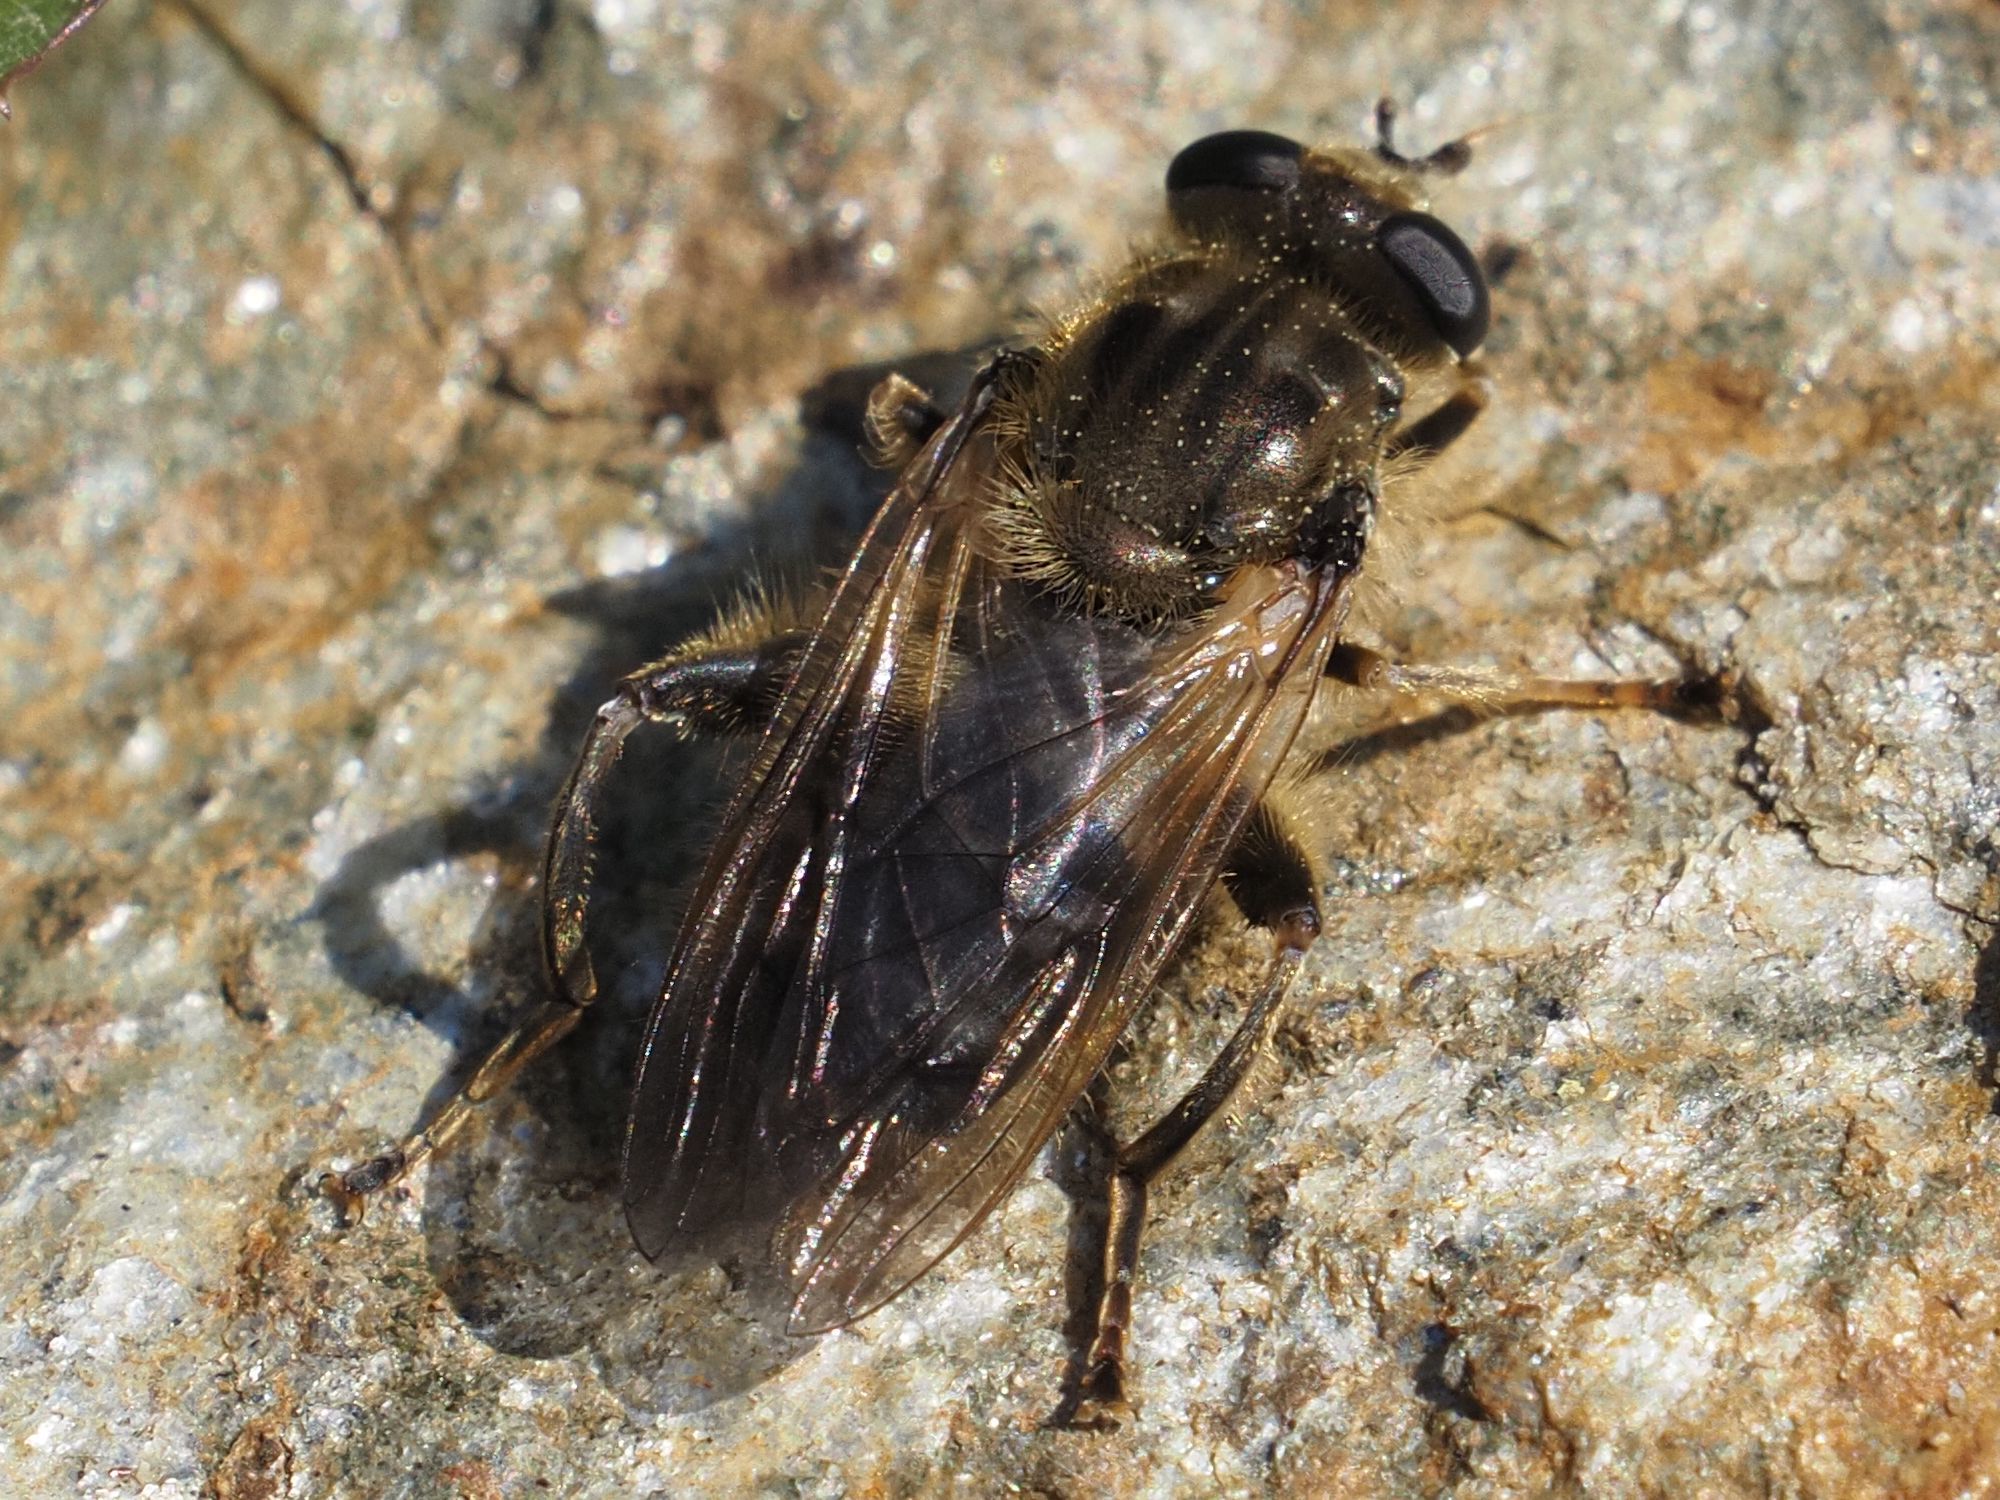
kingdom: Animalia
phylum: Arthropoda
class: Insecta
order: Diptera
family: Syrphidae
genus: Chalcosyrphus
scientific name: Chalcosyrphus eunotus
